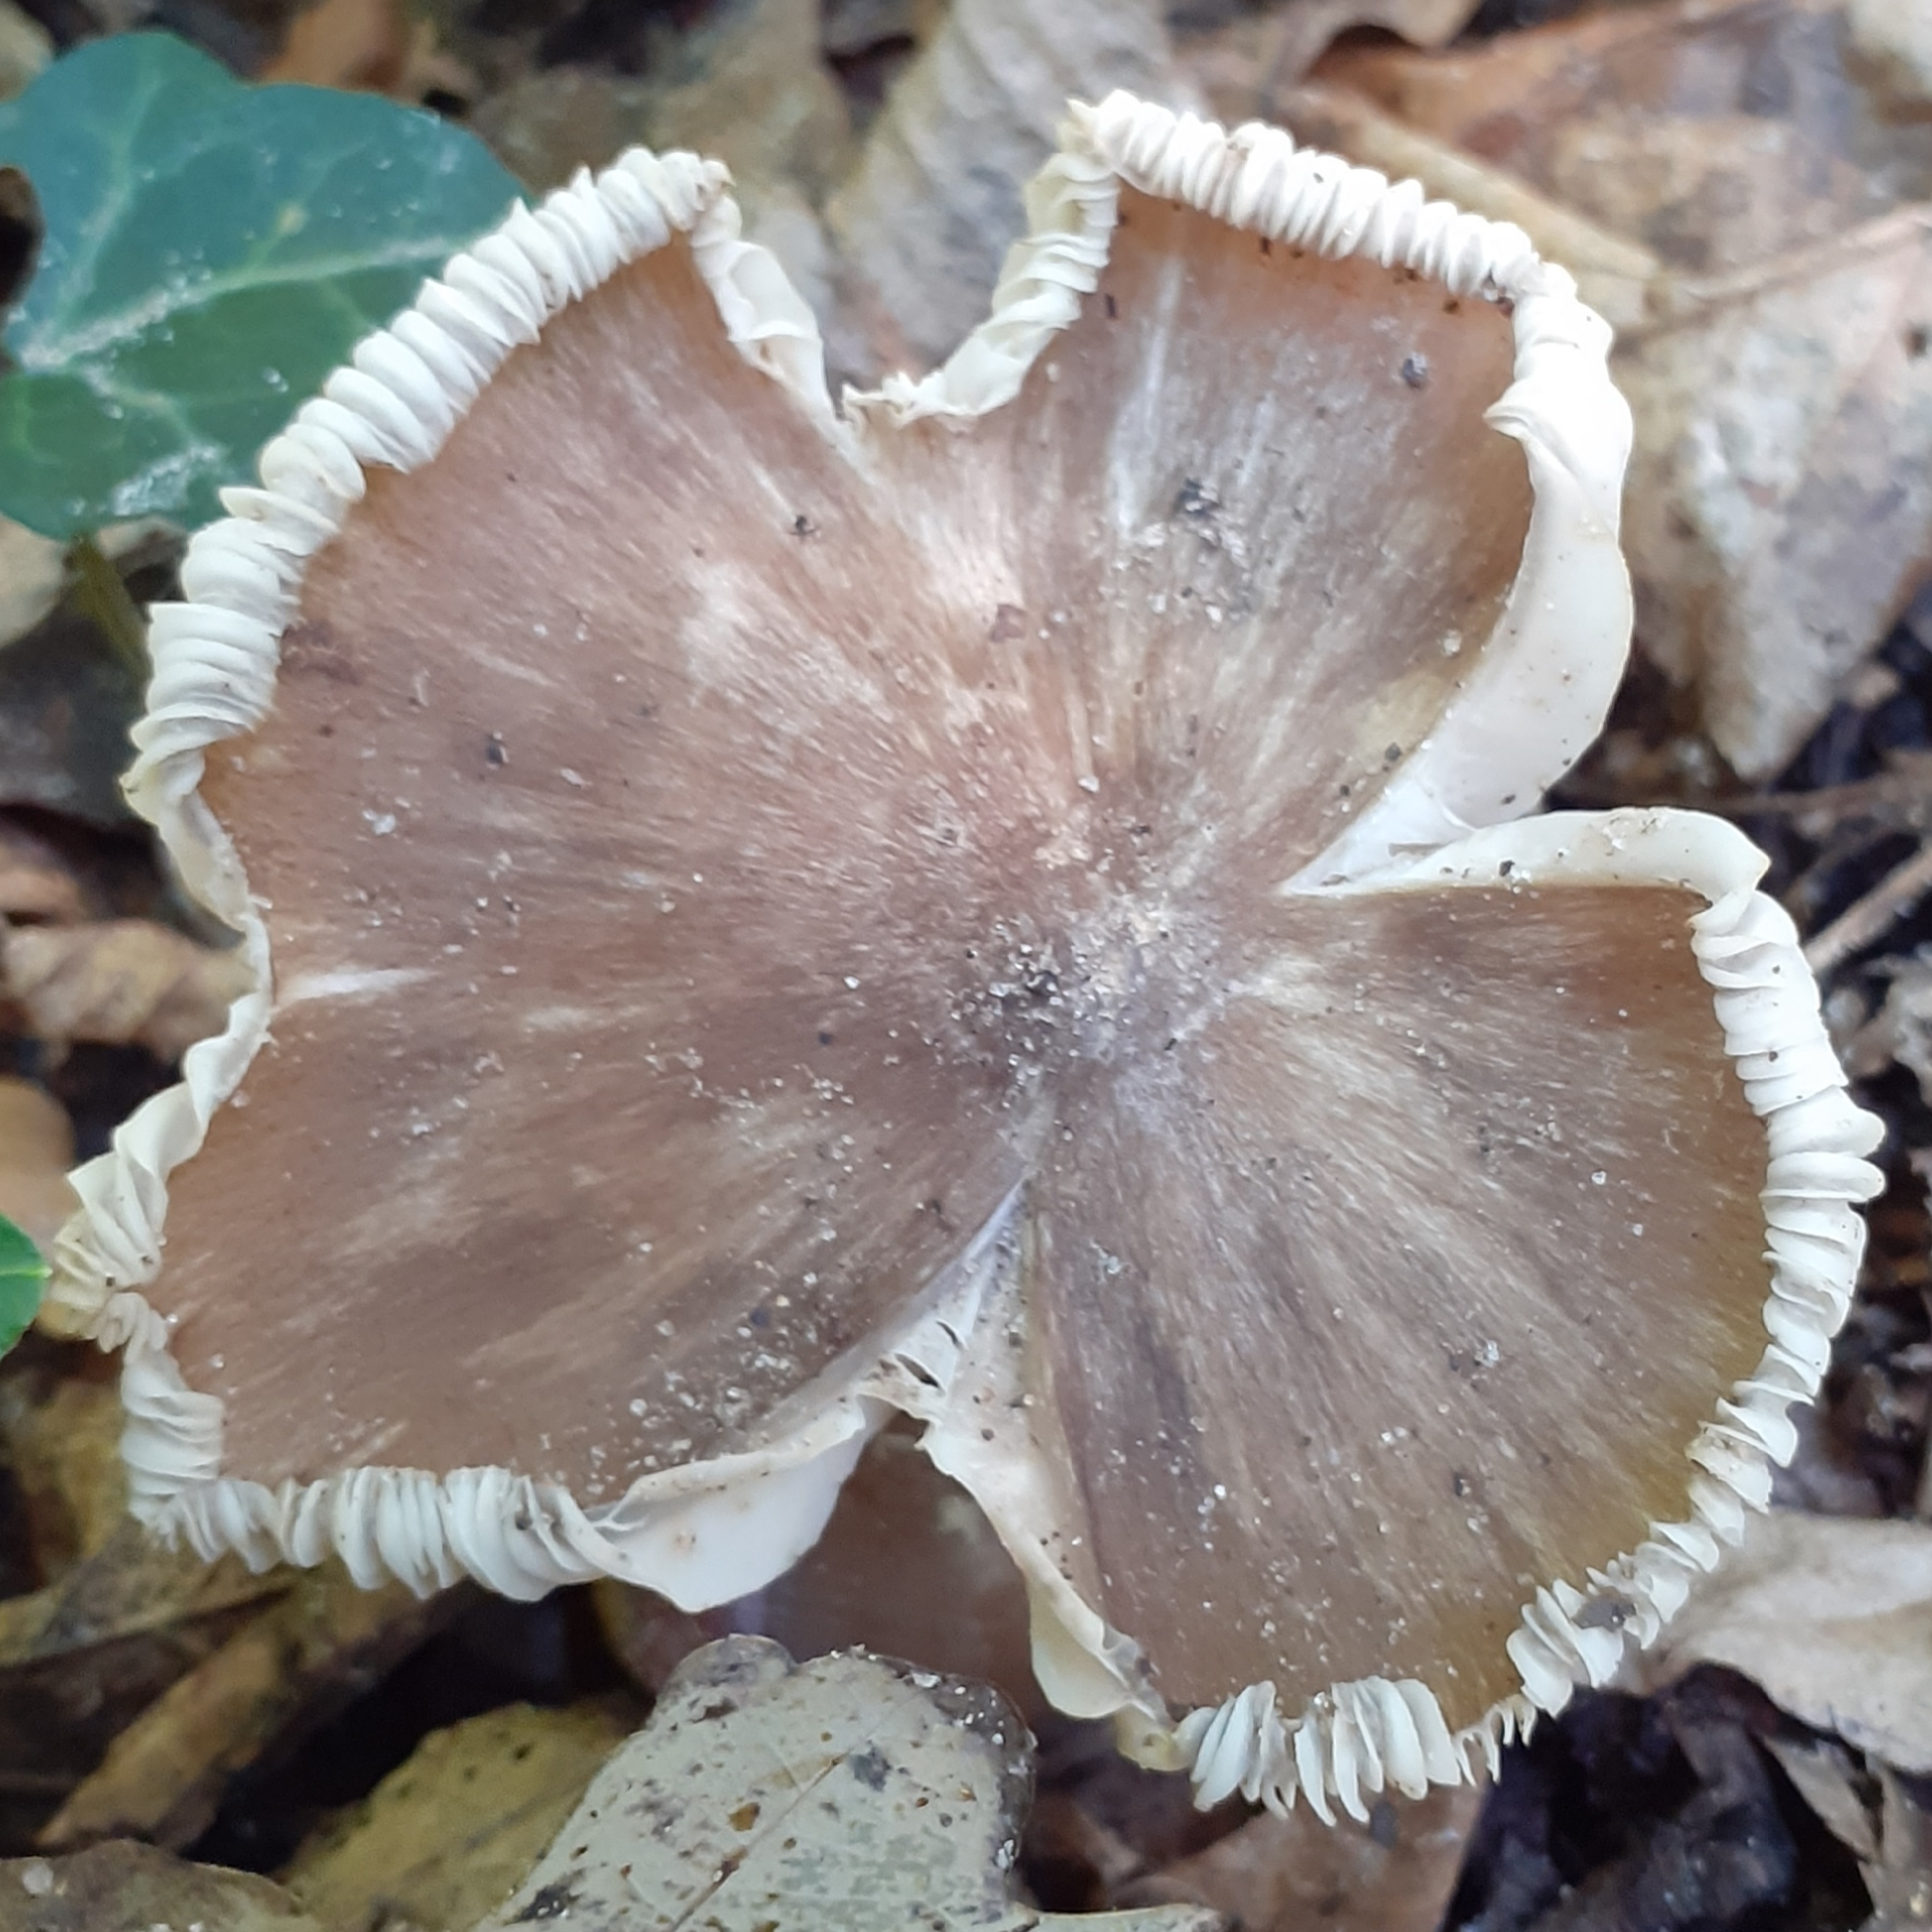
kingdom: Fungi
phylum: Basidiomycota
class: Agaricomycetes
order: Agaricales
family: Tricholomataceae
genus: Megacollybia
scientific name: Megacollybia platyphylla
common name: Whitelaced shank
